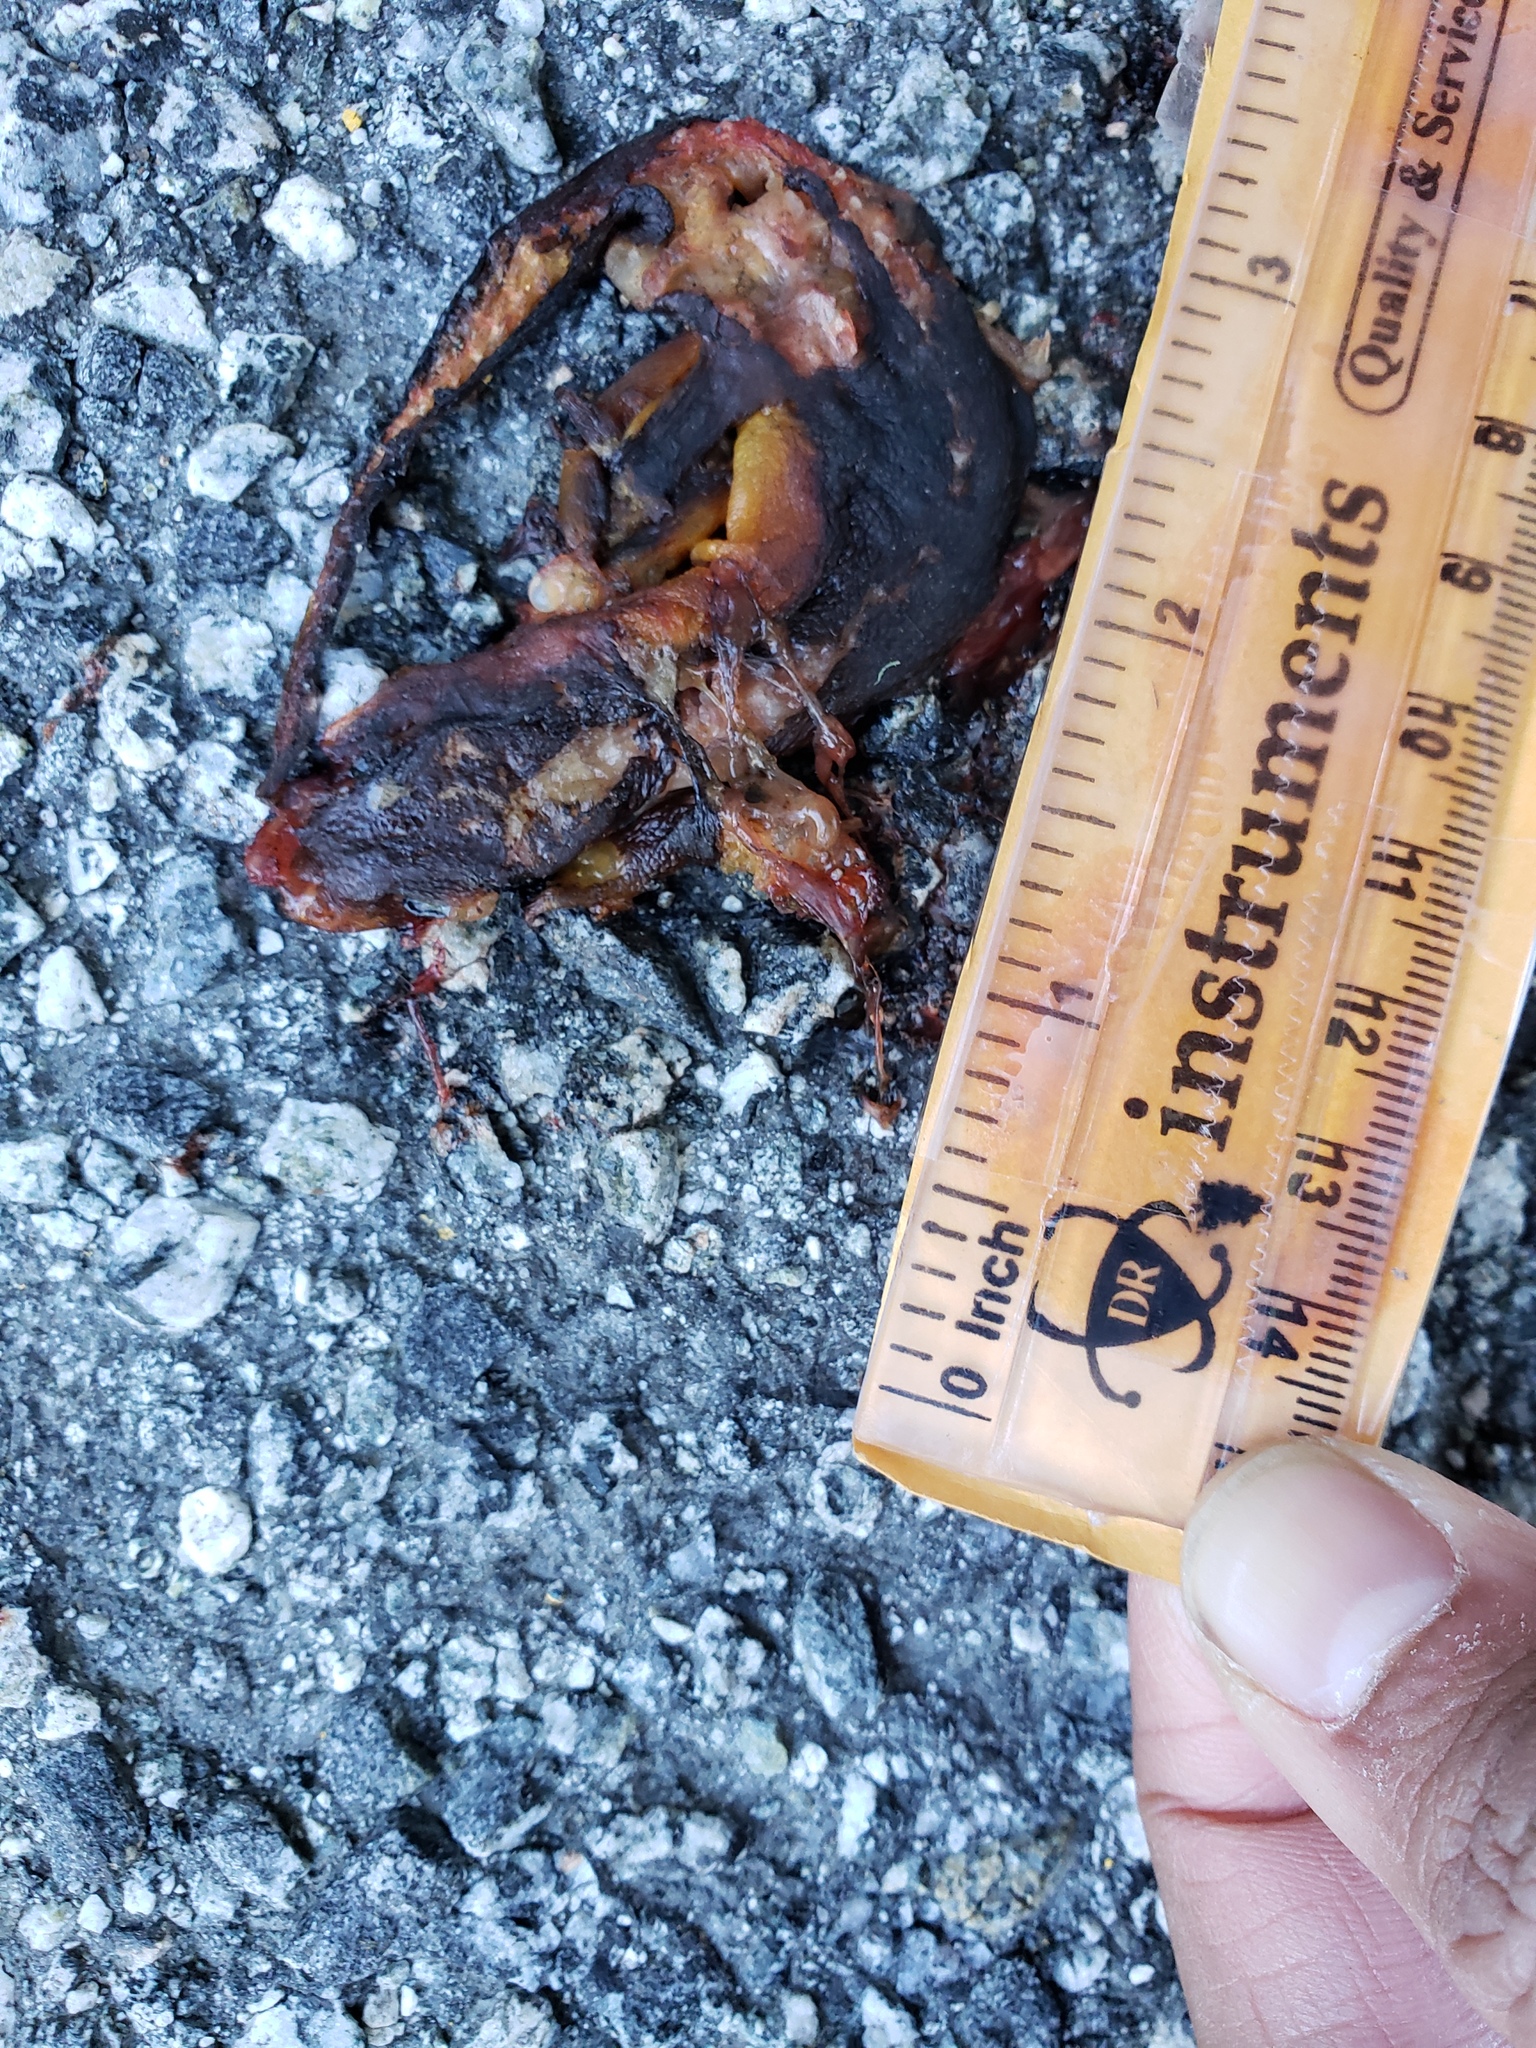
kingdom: Animalia
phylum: Chordata
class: Amphibia
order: Caudata
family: Salamandridae
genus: Taricha
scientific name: Taricha
